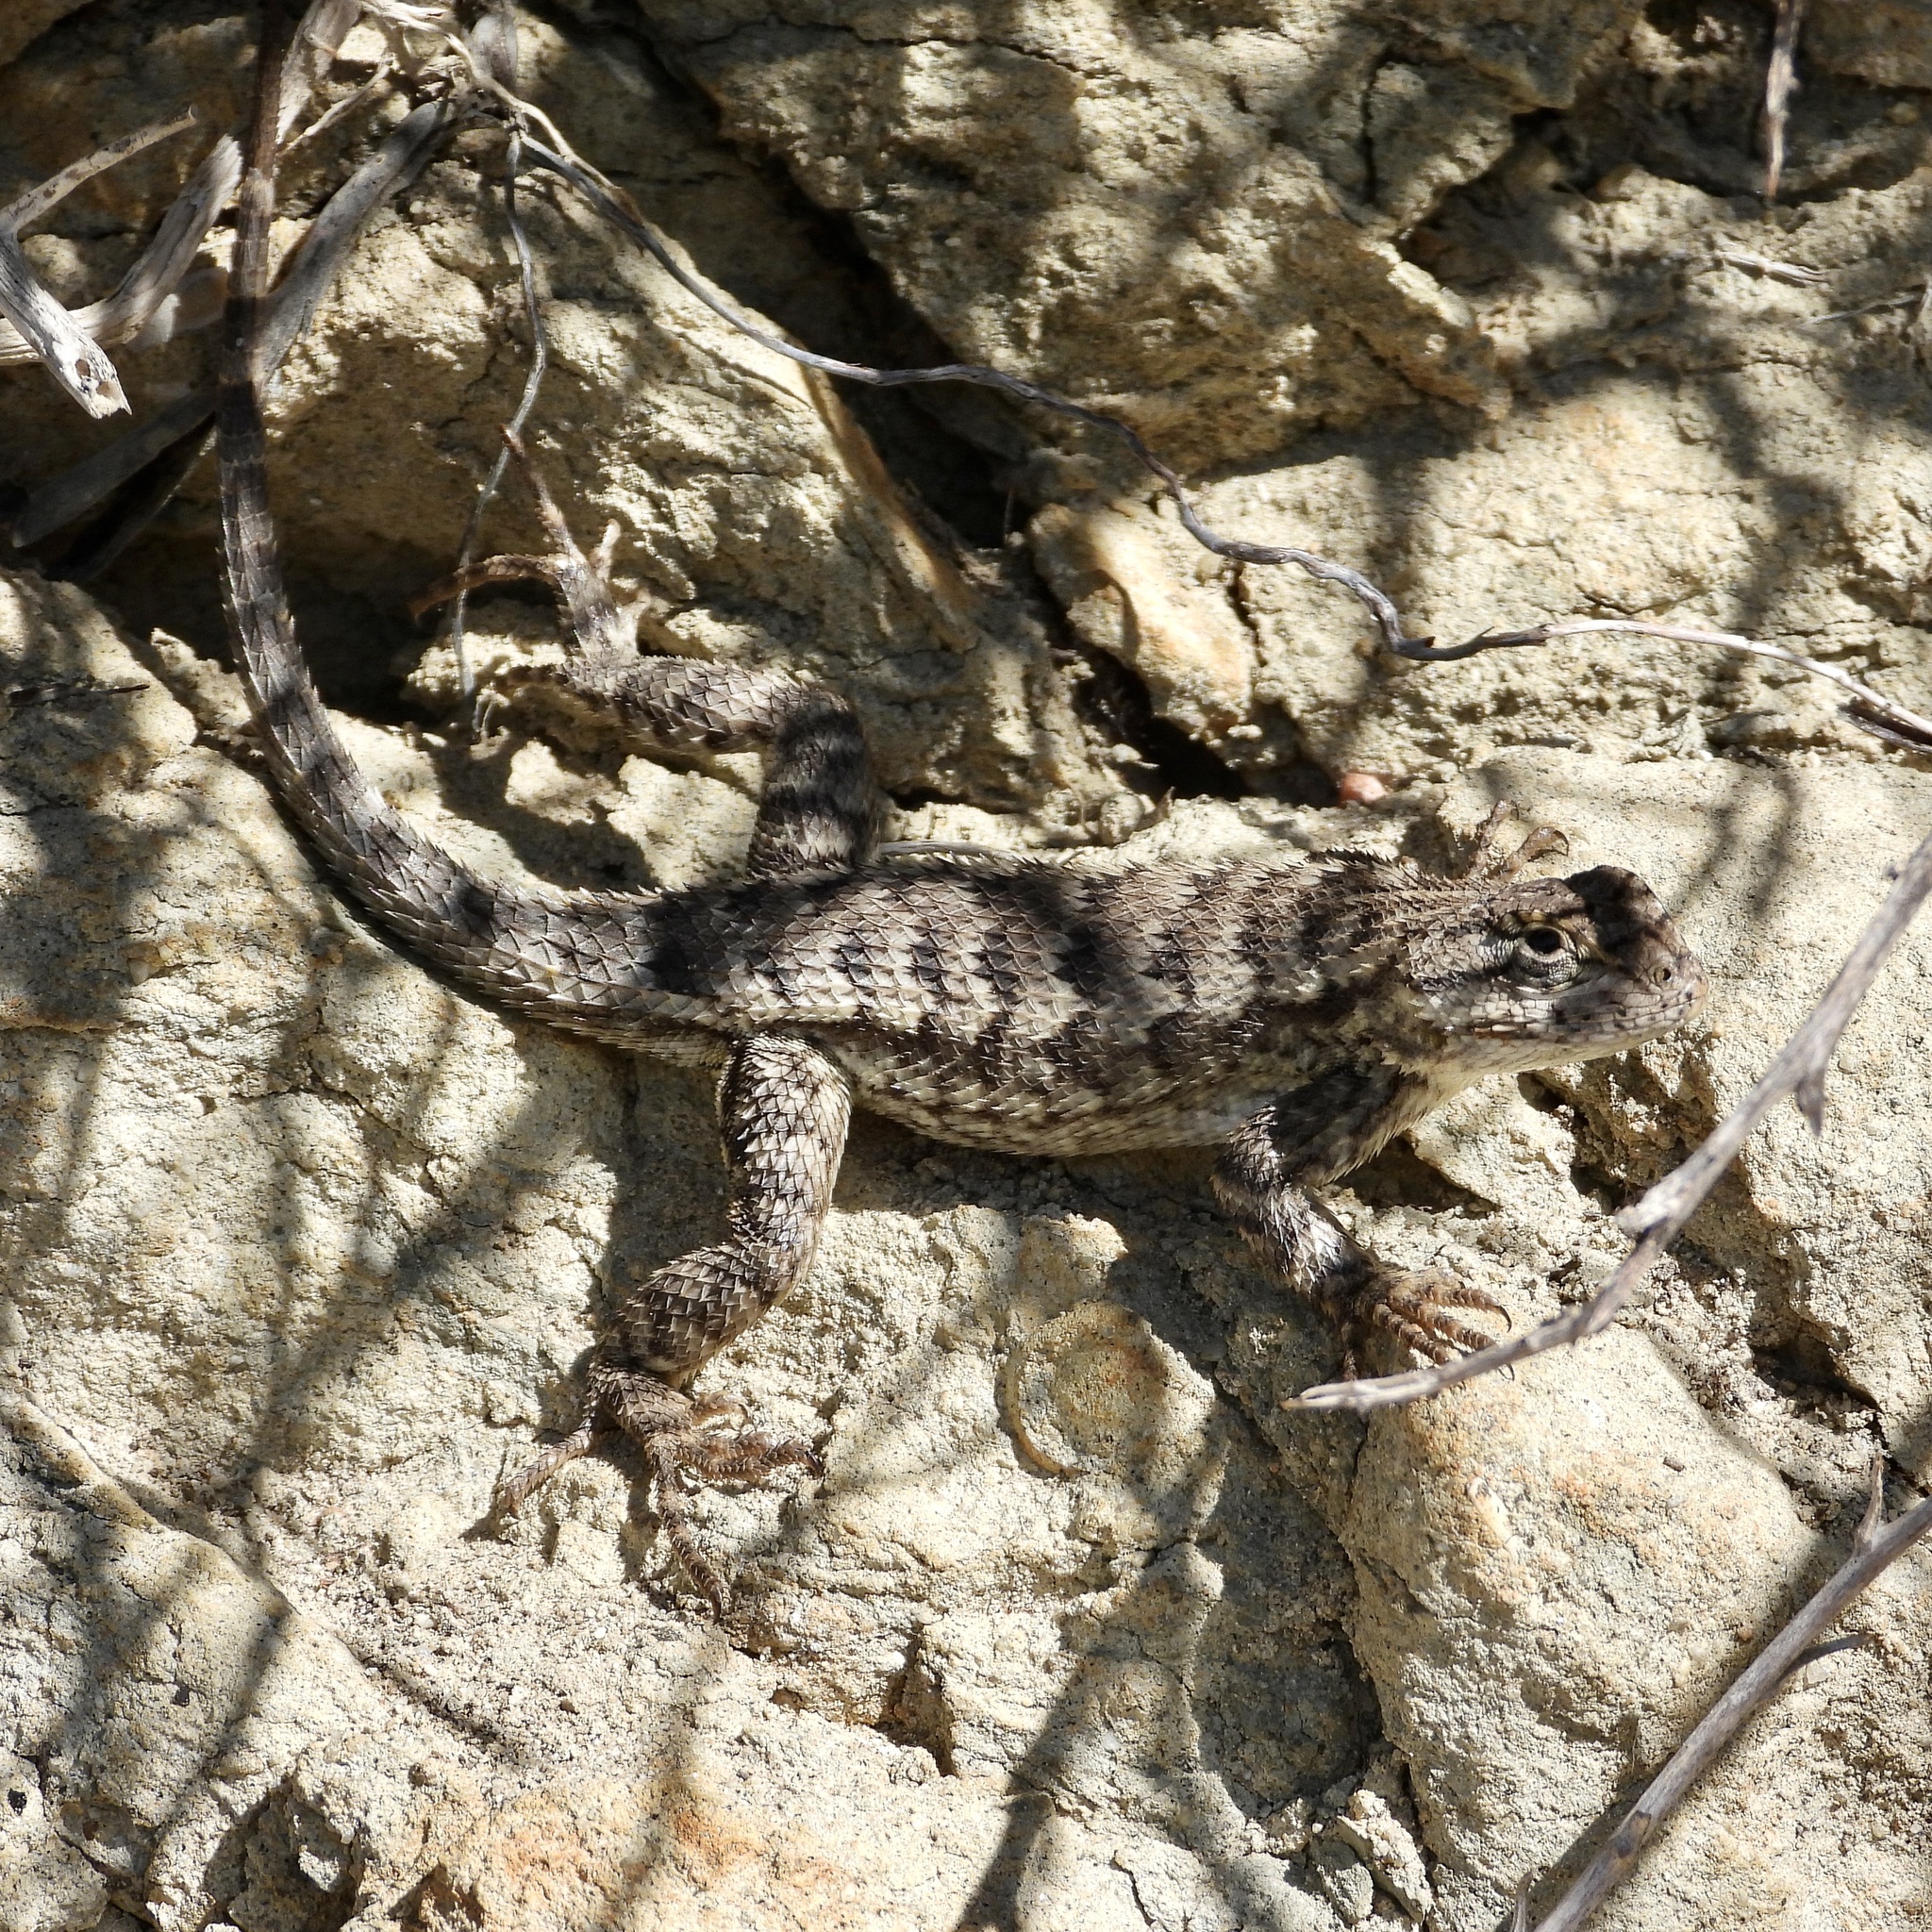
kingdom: Animalia
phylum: Chordata
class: Squamata
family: Phrynosomatidae
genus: Sceloporus
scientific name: Sceloporus occidentalis
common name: Western fence lizard
